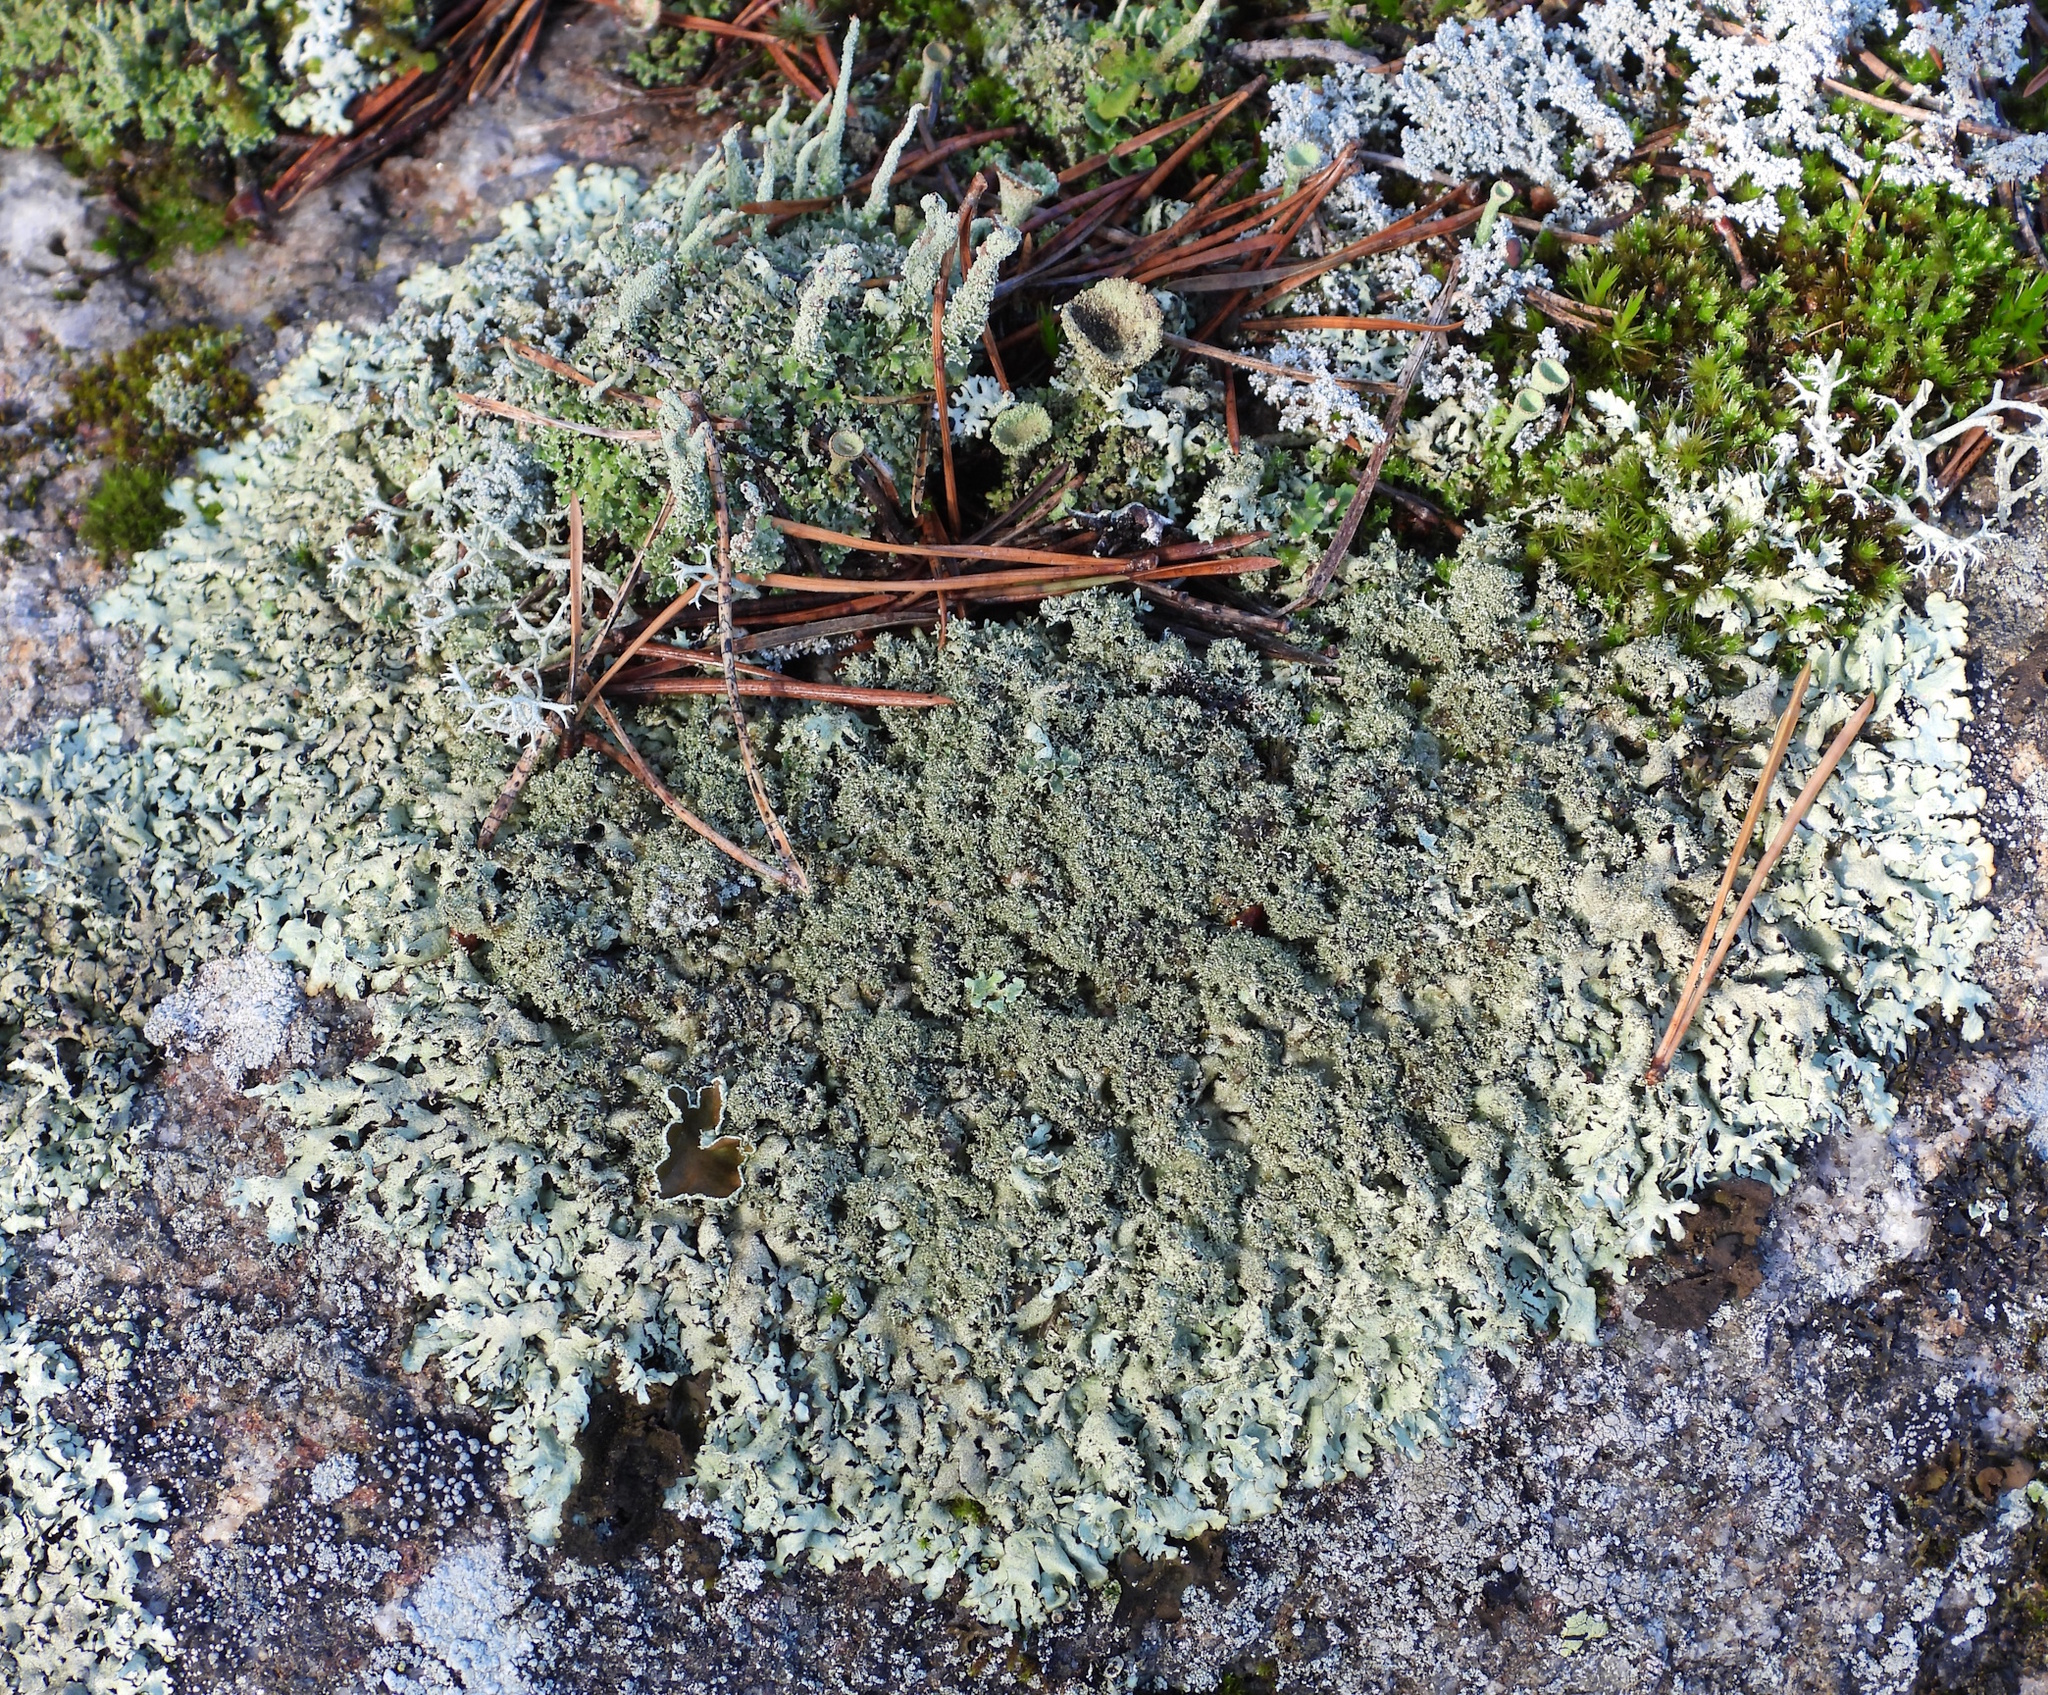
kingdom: Fungi
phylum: Ascomycota
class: Lecanoromycetes
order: Lecanorales
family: Parmeliaceae
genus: Xanthoparmelia
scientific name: Xanthoparmelia conspersa
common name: Peppered rock shield
